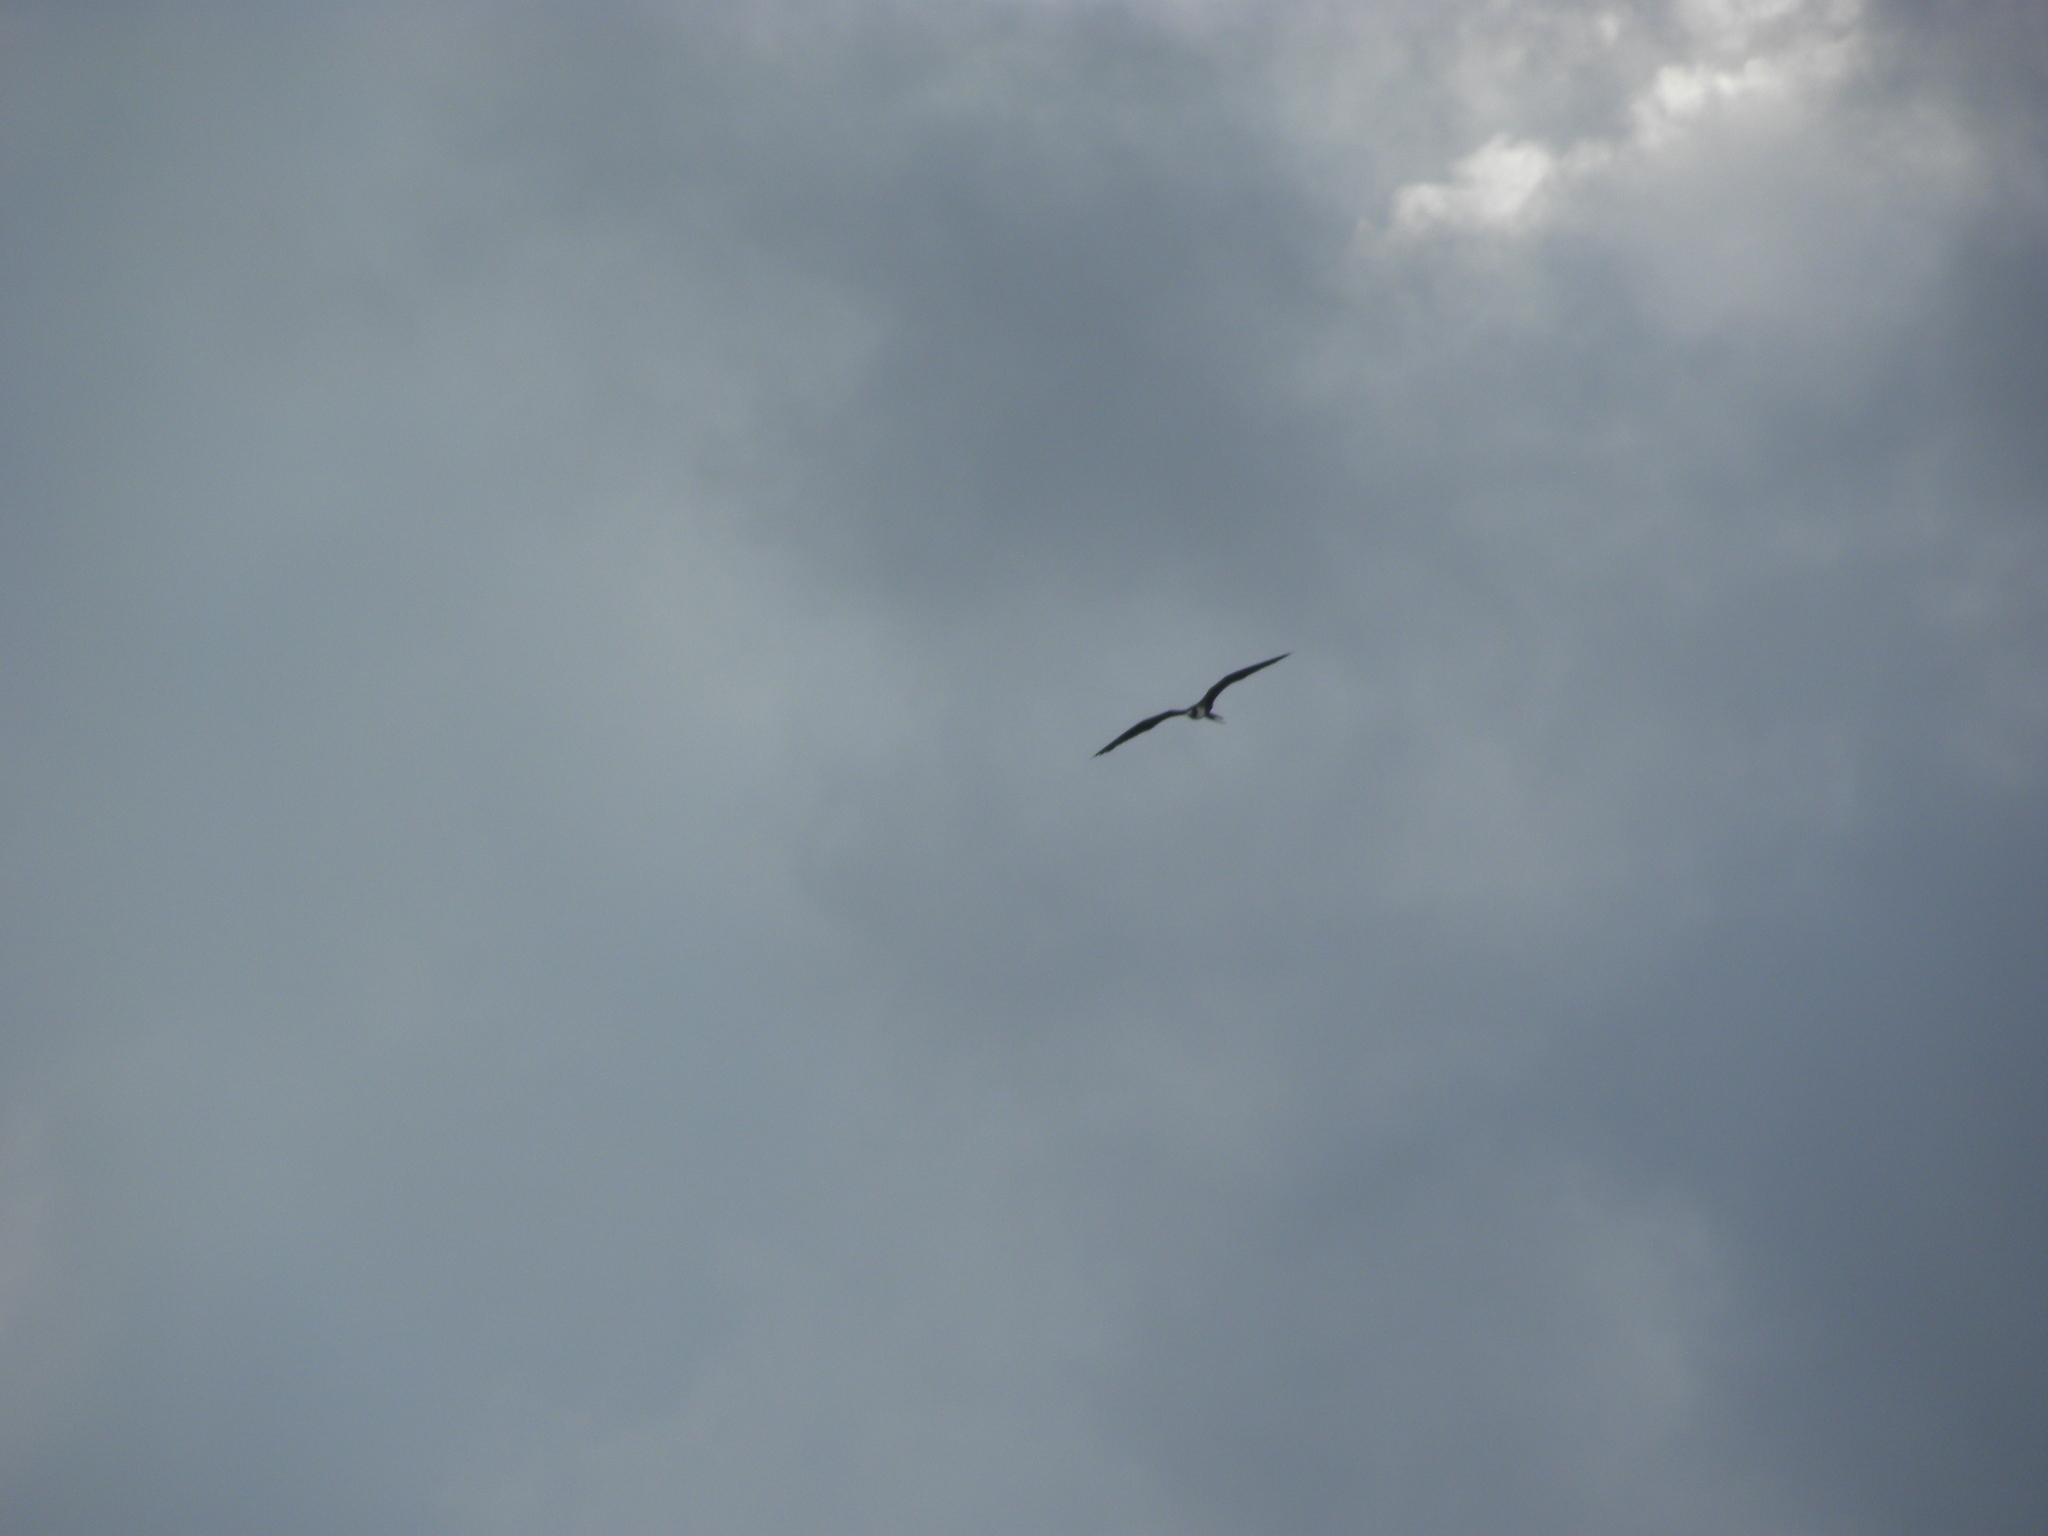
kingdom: Animalia
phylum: Chordata
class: Aves
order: Suliformes
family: Fregatidae
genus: Fregata
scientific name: Fregata magnificens
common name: Magnificent frigatebird
